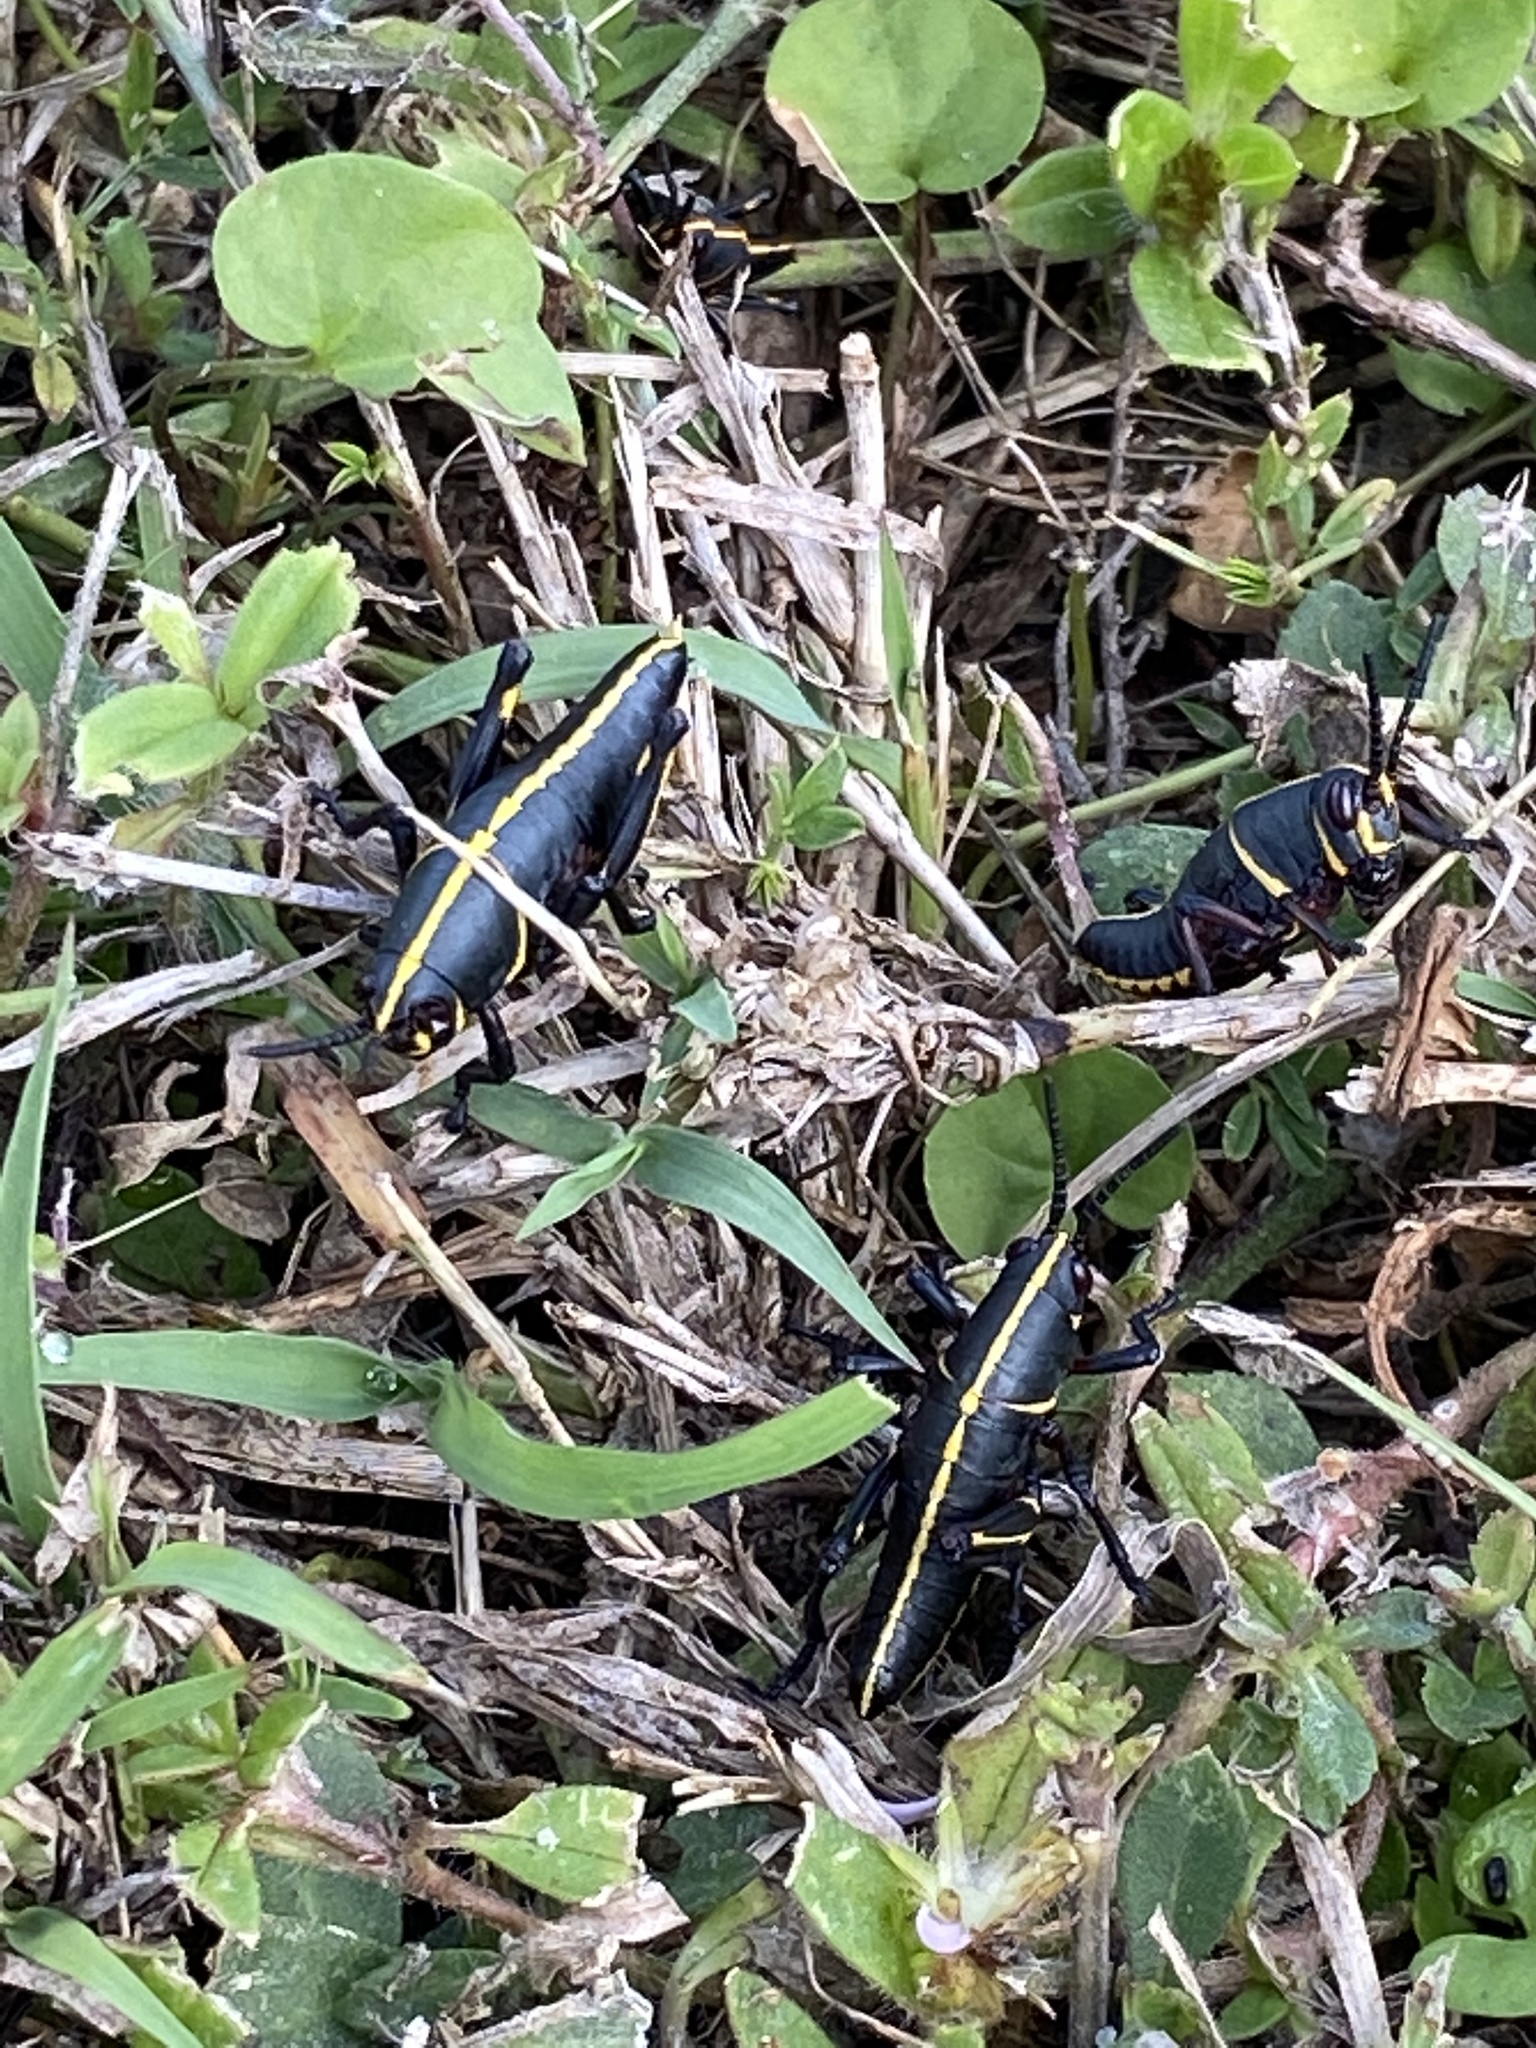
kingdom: Animalia
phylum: Arthropoda
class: Insecta
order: Orthoptera
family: Romaleidae
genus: Romalea
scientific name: Romalea microptera
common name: Eastern lubber grasshopper
